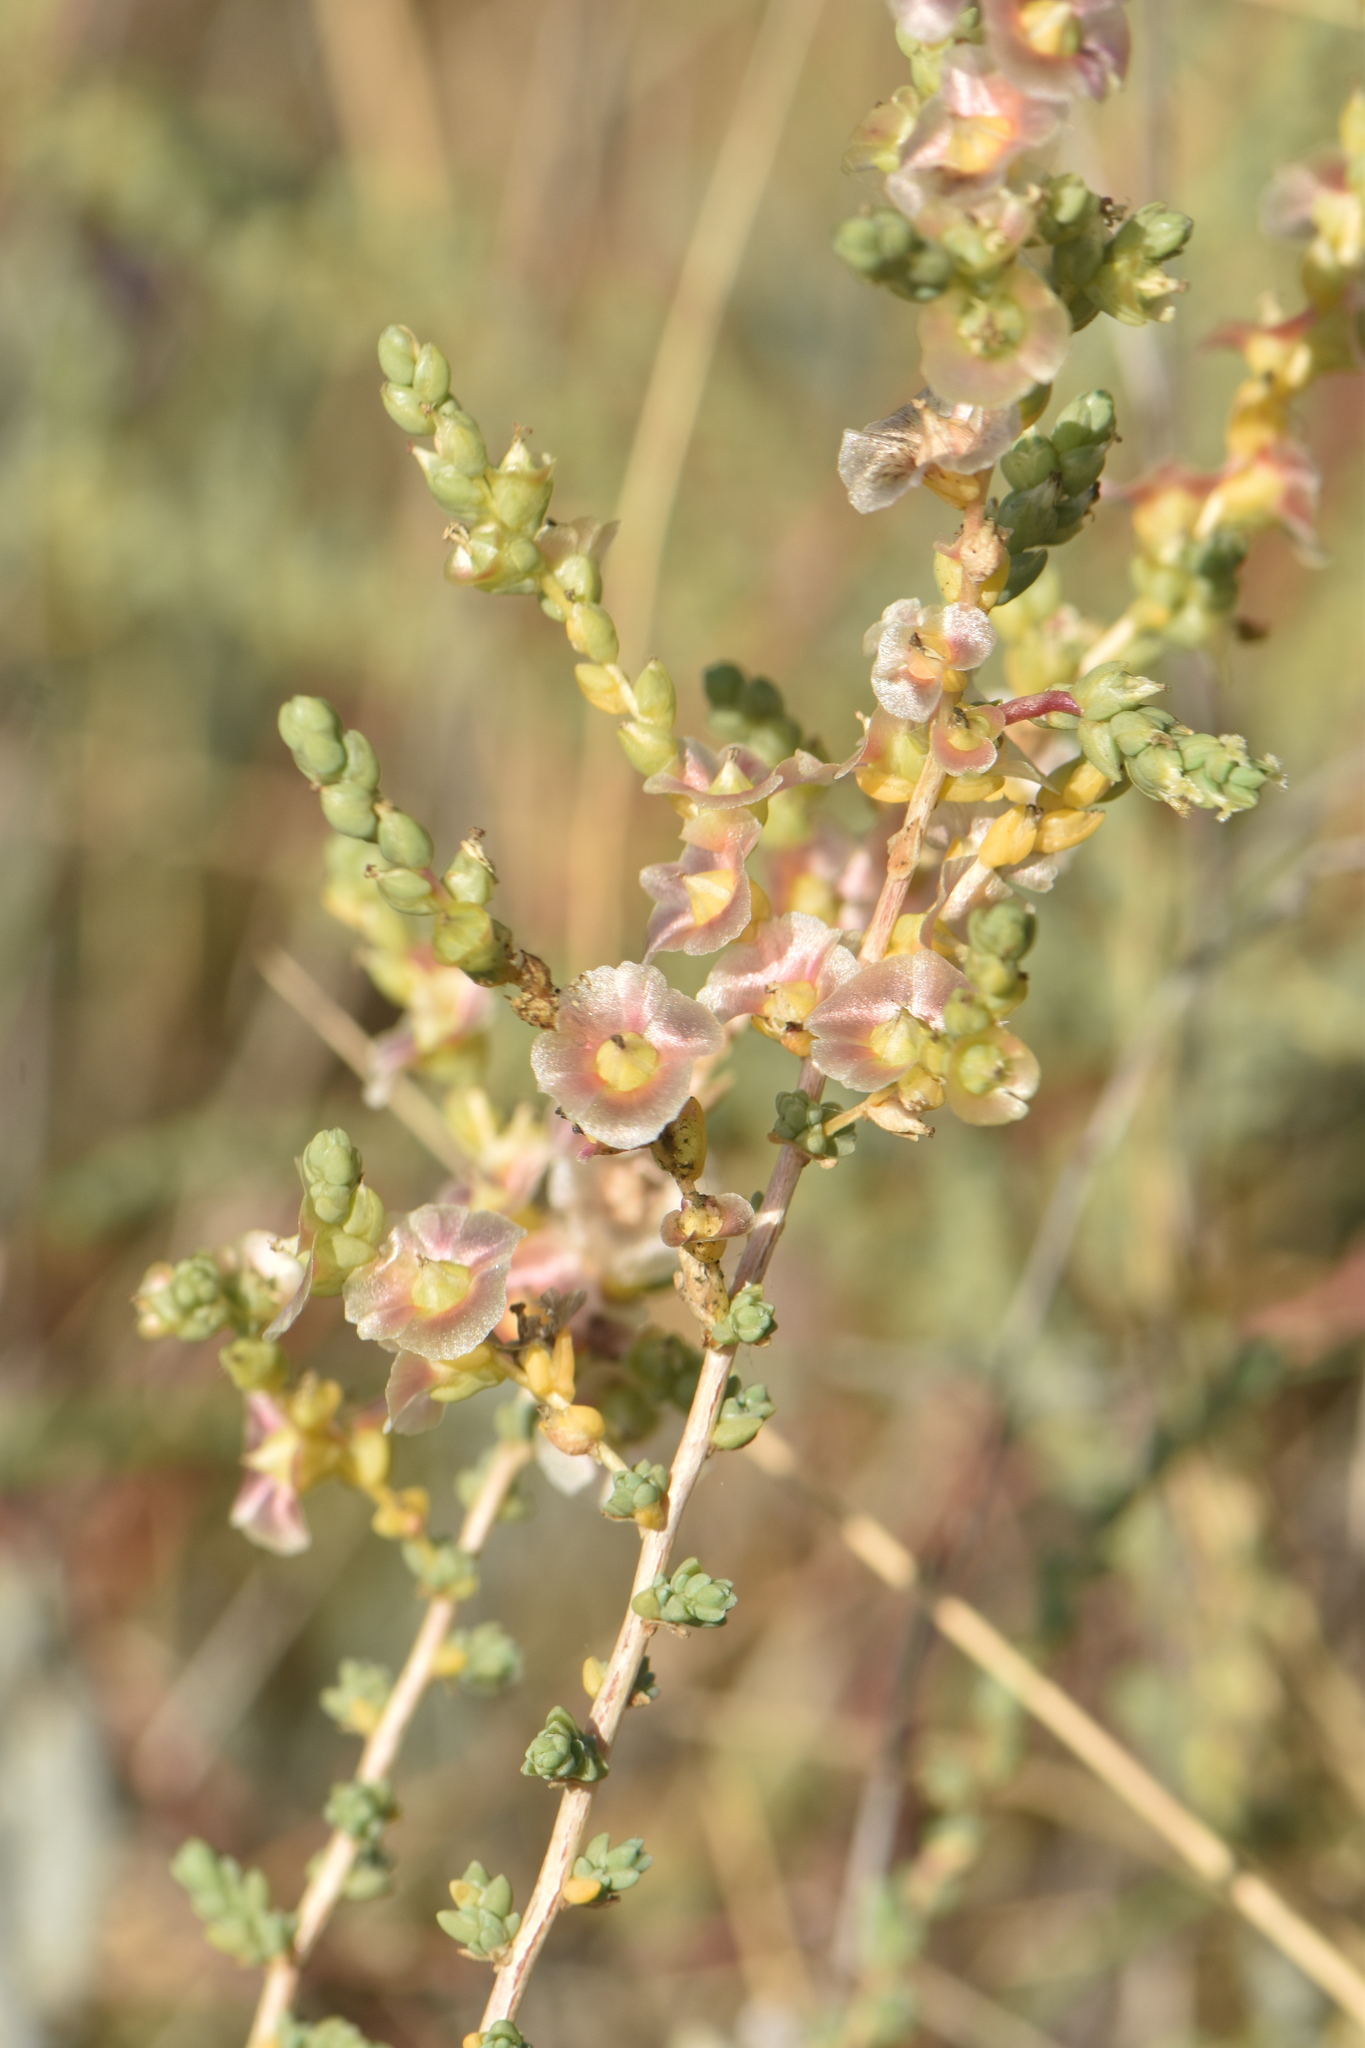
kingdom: Plantae
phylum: Tracheophyta
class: Magnoliopsida
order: Caryophyllales
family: Amaranthaceae
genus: Nitrosalsola
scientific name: Nitrosalsola vermiculata
